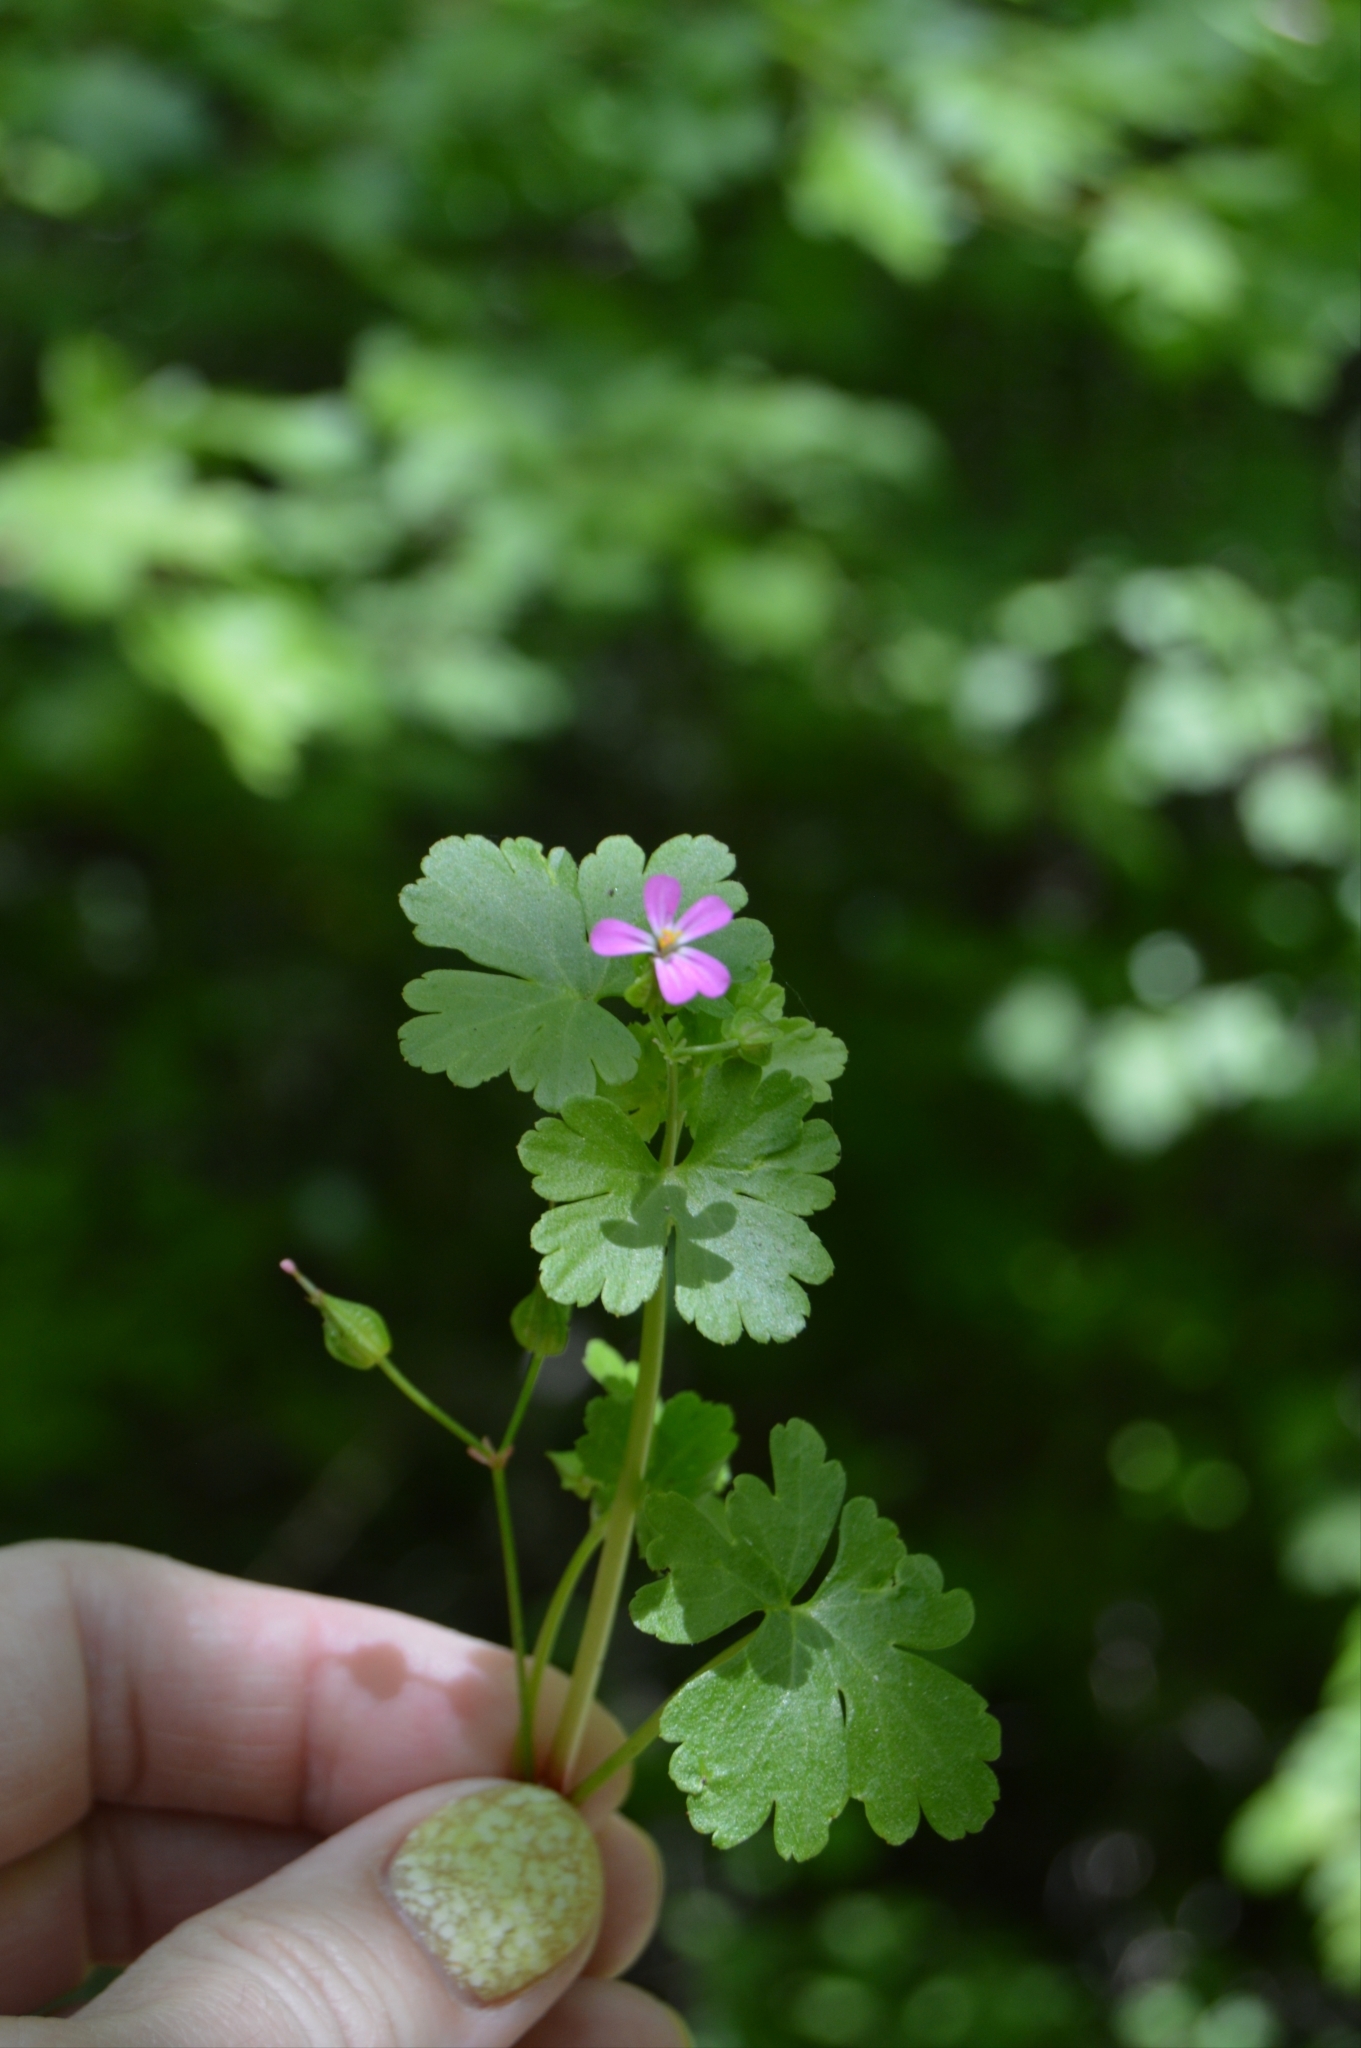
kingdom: Plantae
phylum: Tracheophyta
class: Magnoliopsida
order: Geraniales
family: Geraniaceae
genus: Geranium
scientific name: Geranium lucidum
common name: Shining crane's-bill
